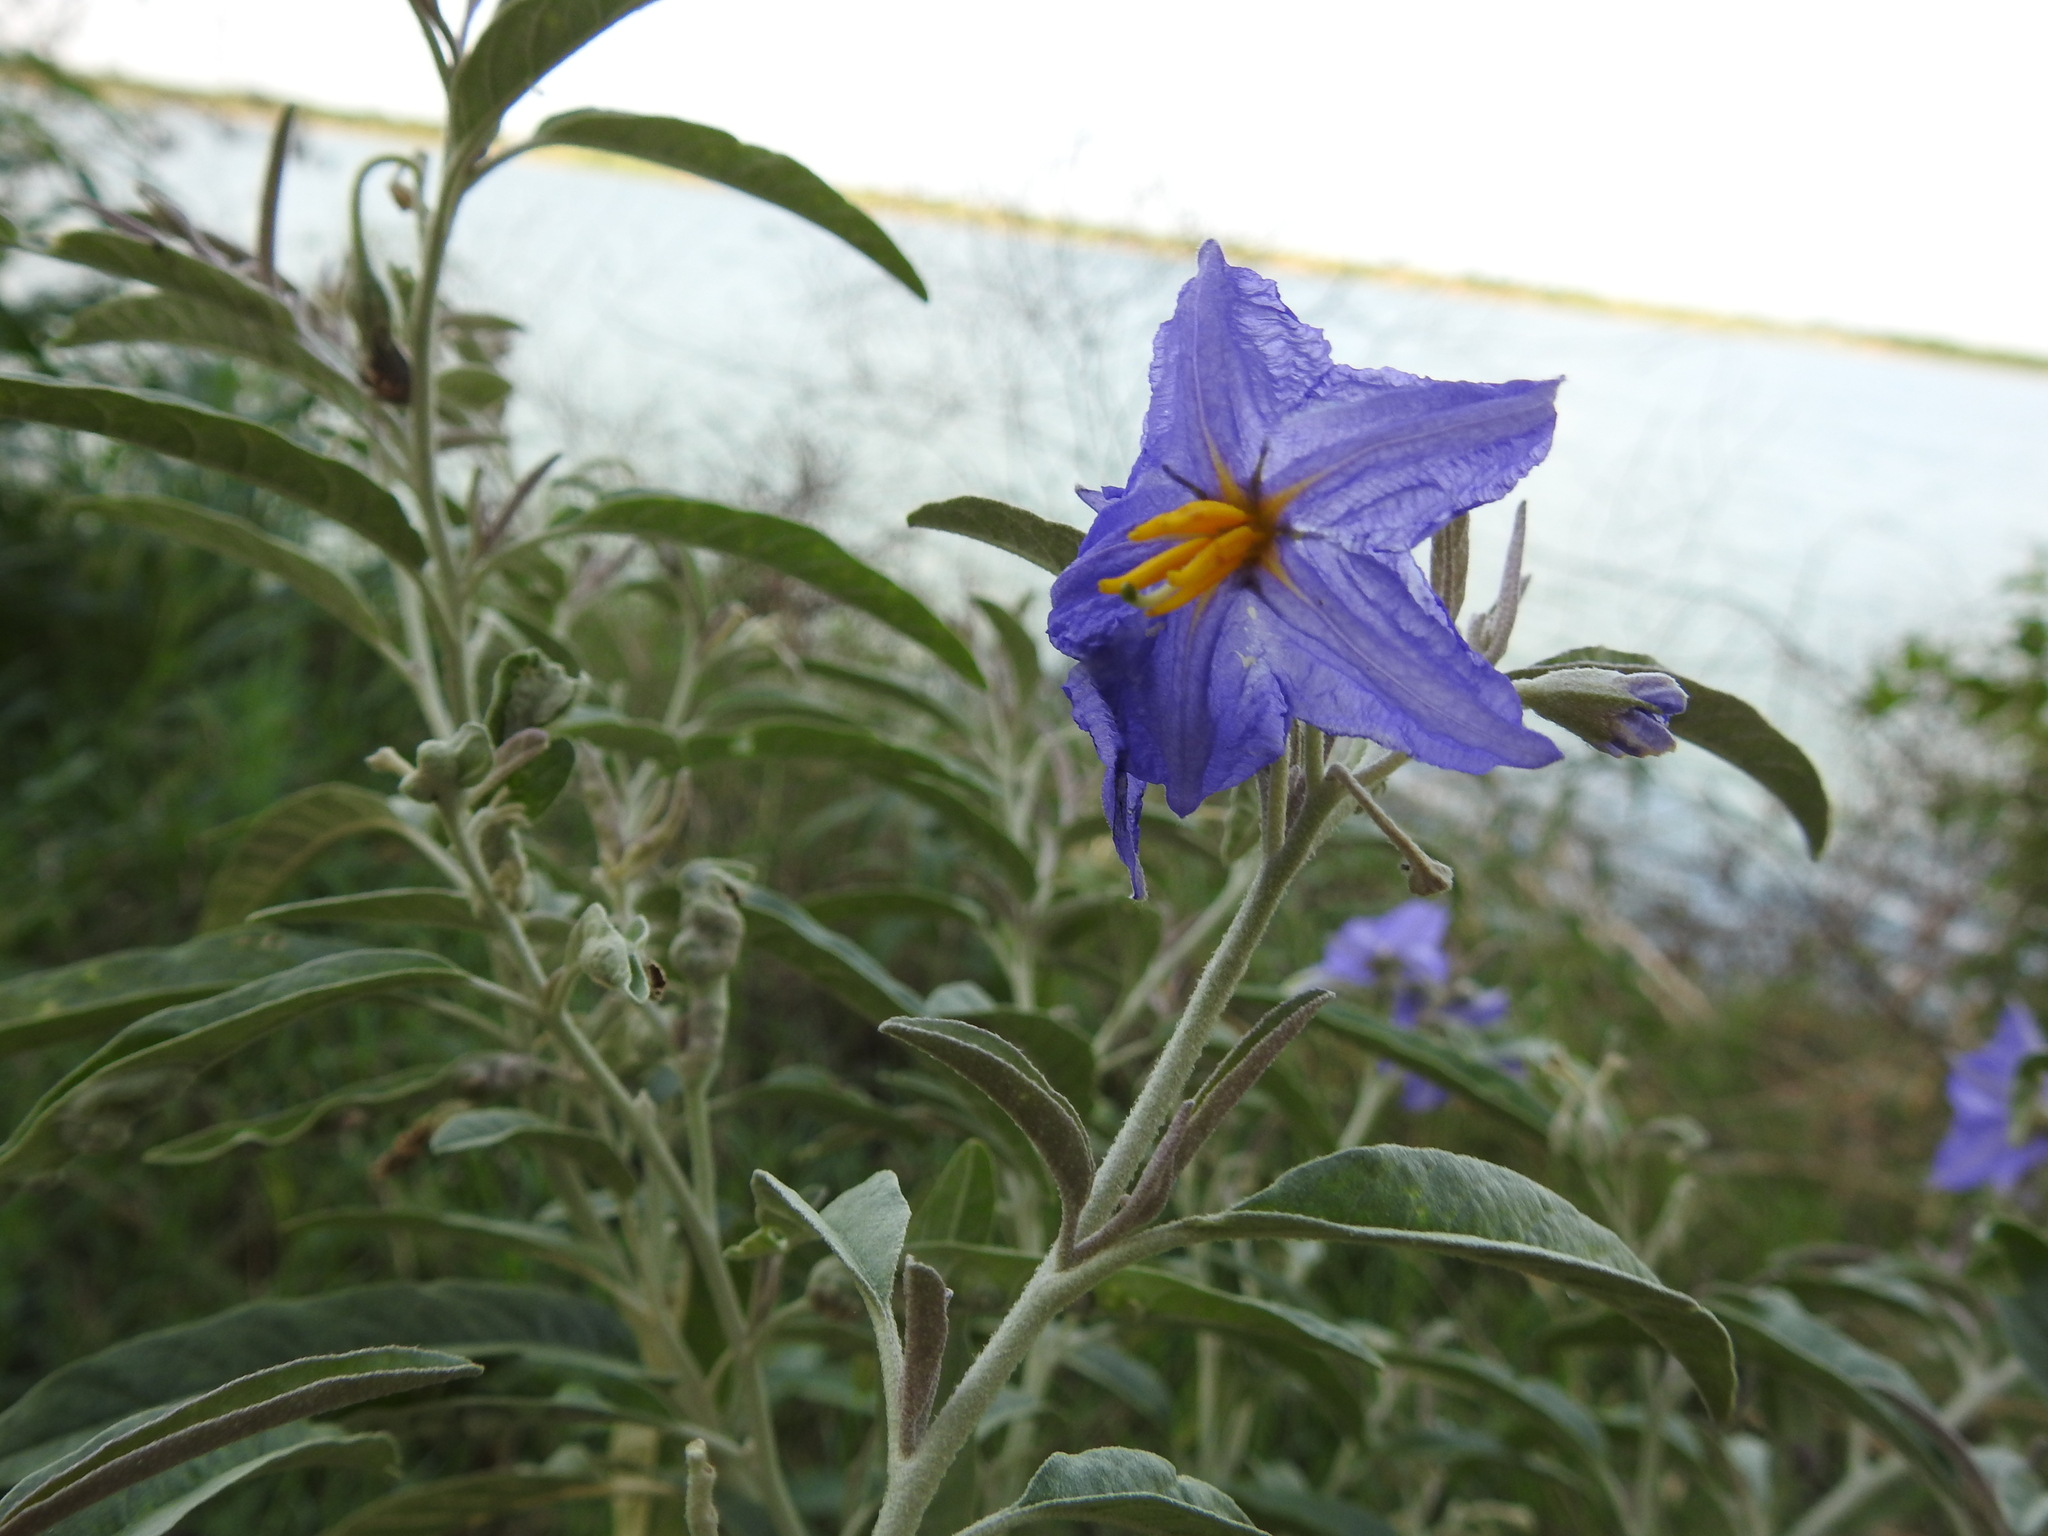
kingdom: Plantae
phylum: Tracheophyta
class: Magnoliopsida
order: Solanales
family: Solanaceae
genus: Solanum
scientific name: Solanum elaeagnifolium
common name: Silverleaf nightshade
